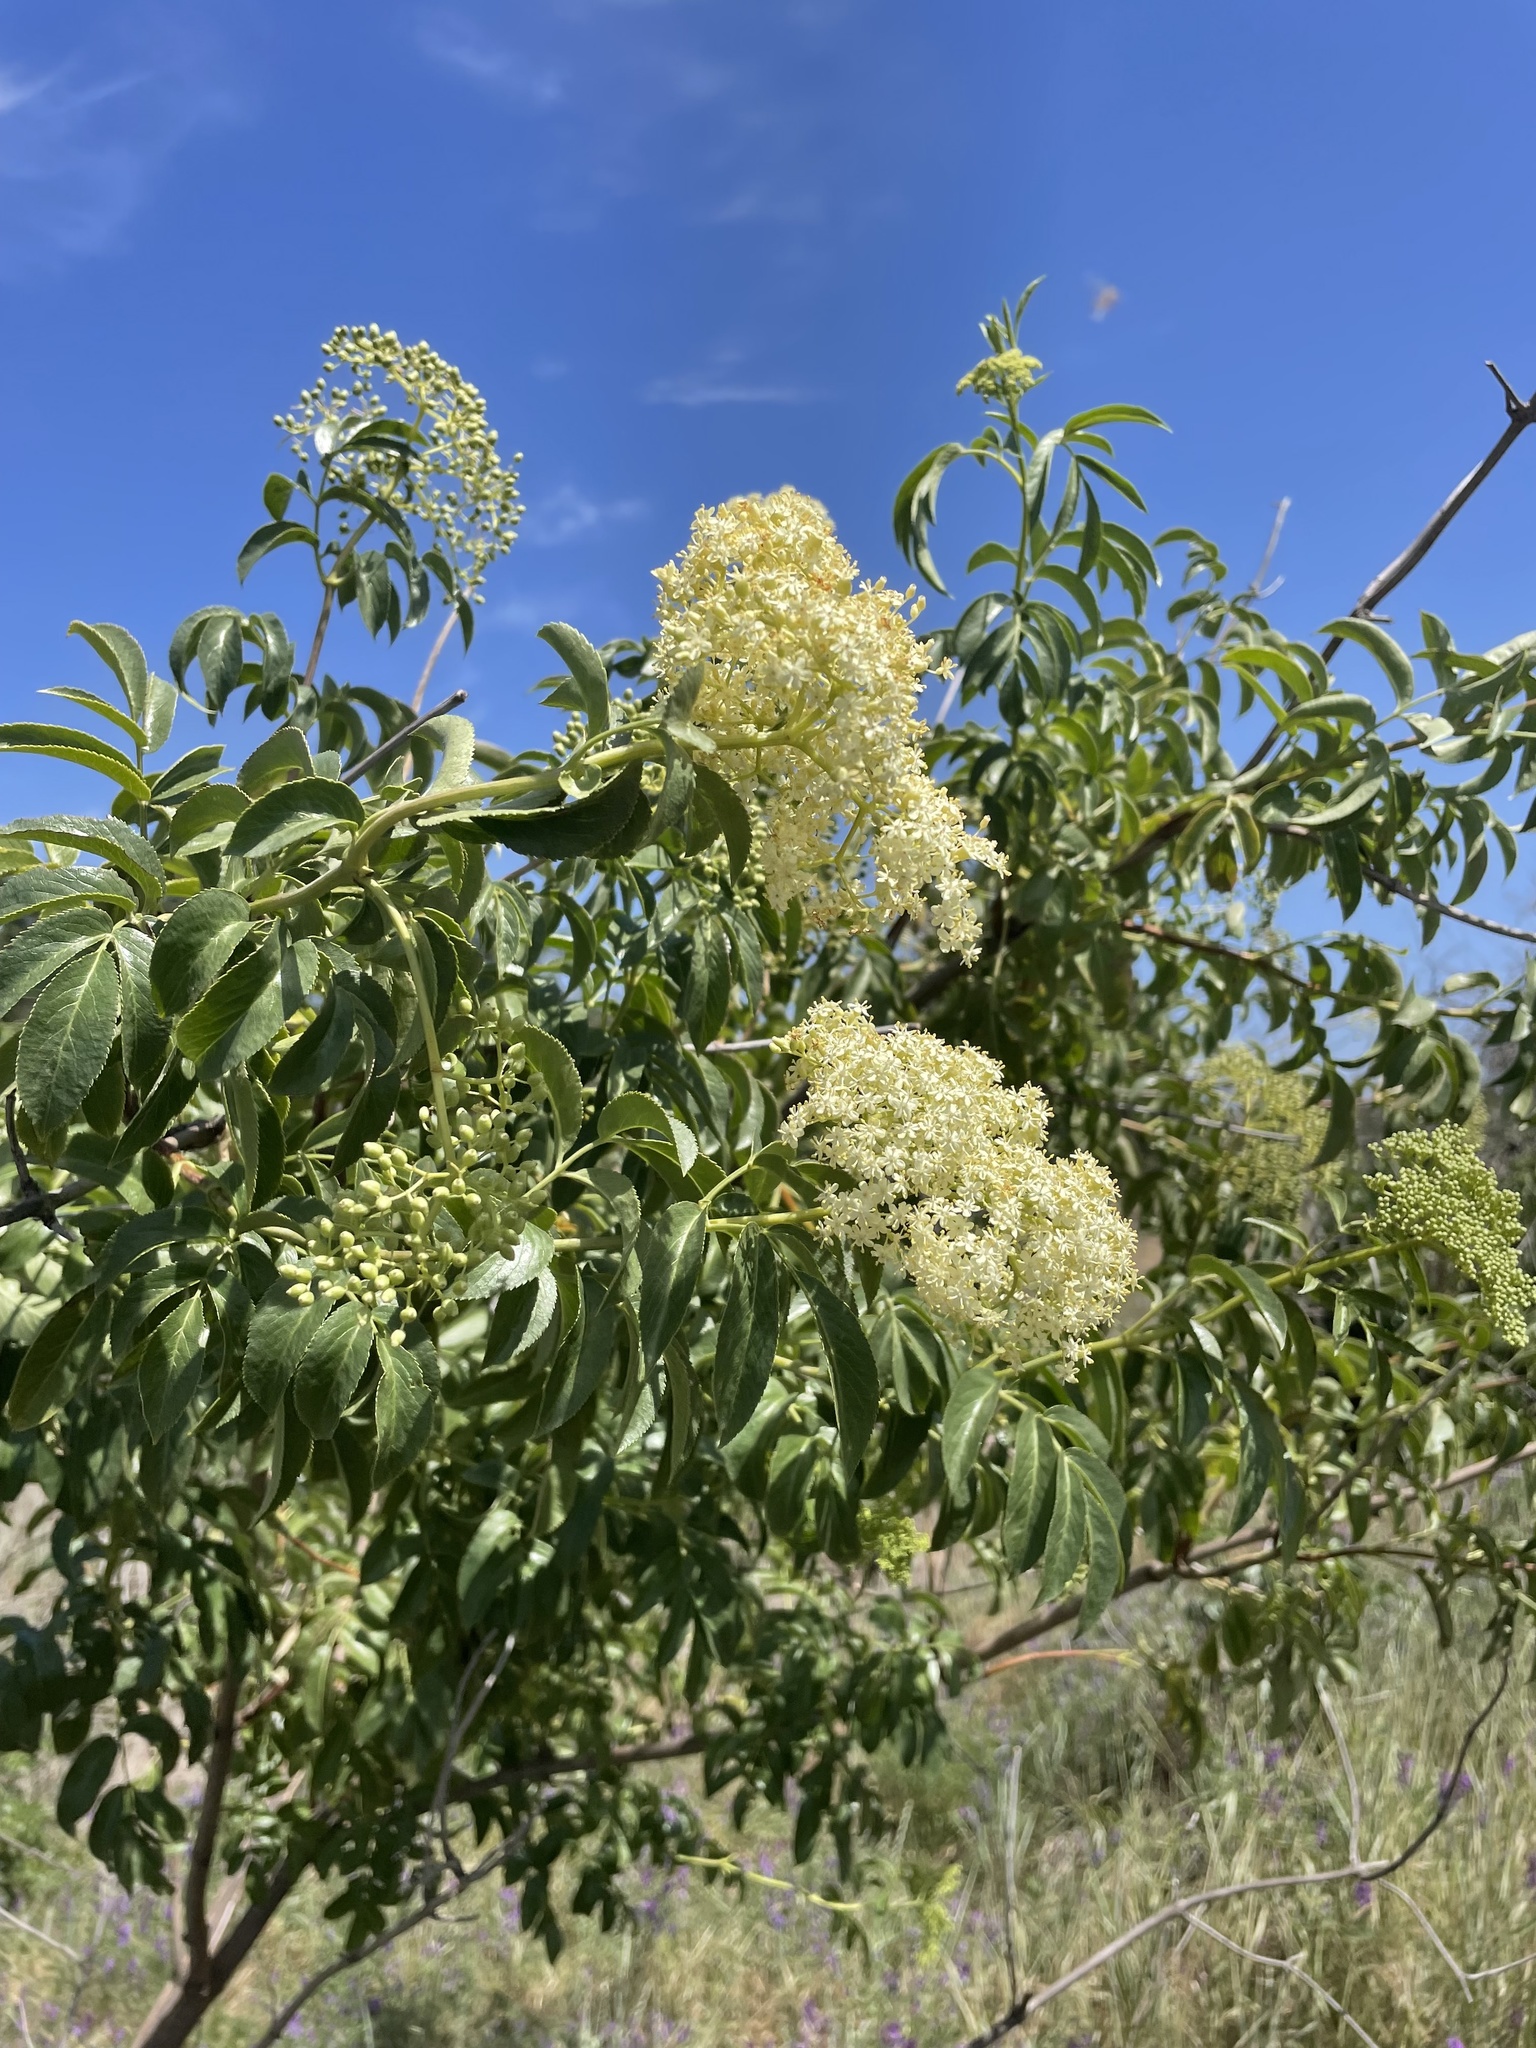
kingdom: Plantae
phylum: Tracheophyta
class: Magnoliopsida
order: Dipsacales
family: Viburnaceae
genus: Sambucus
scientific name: Sambucus cerulea
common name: Blue elder
